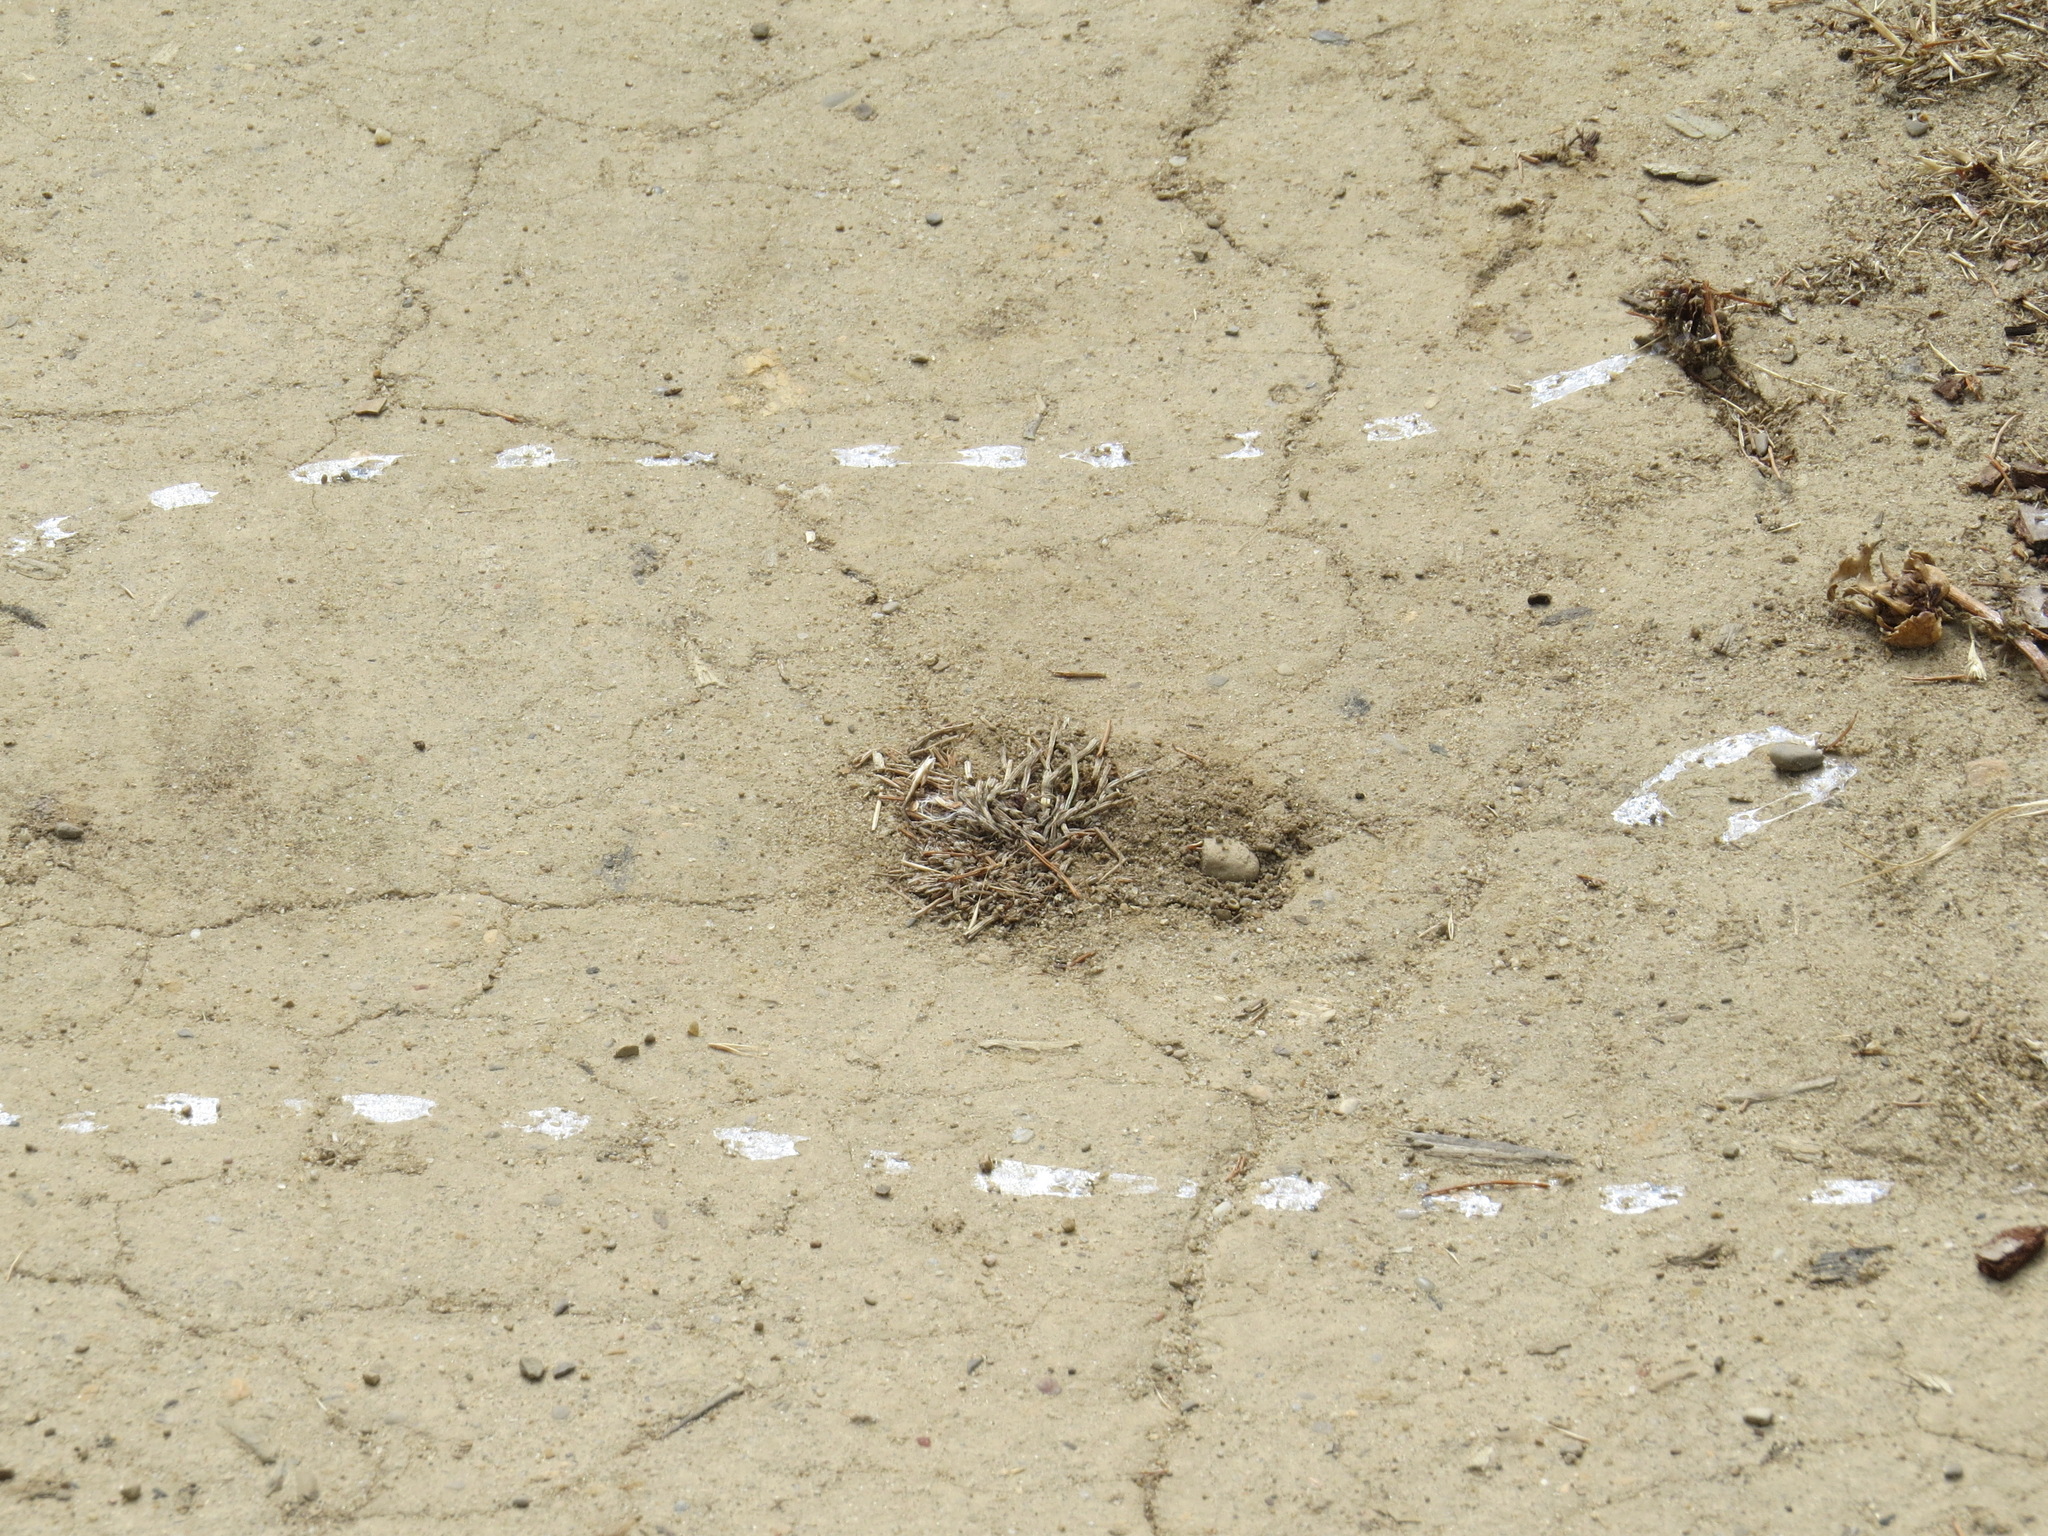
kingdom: Animalia
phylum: Mollusca
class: Gastropoda
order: Stylommatophora
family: Helicidae
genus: Cornu
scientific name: Cornu aspersum
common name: Brown garden snail
